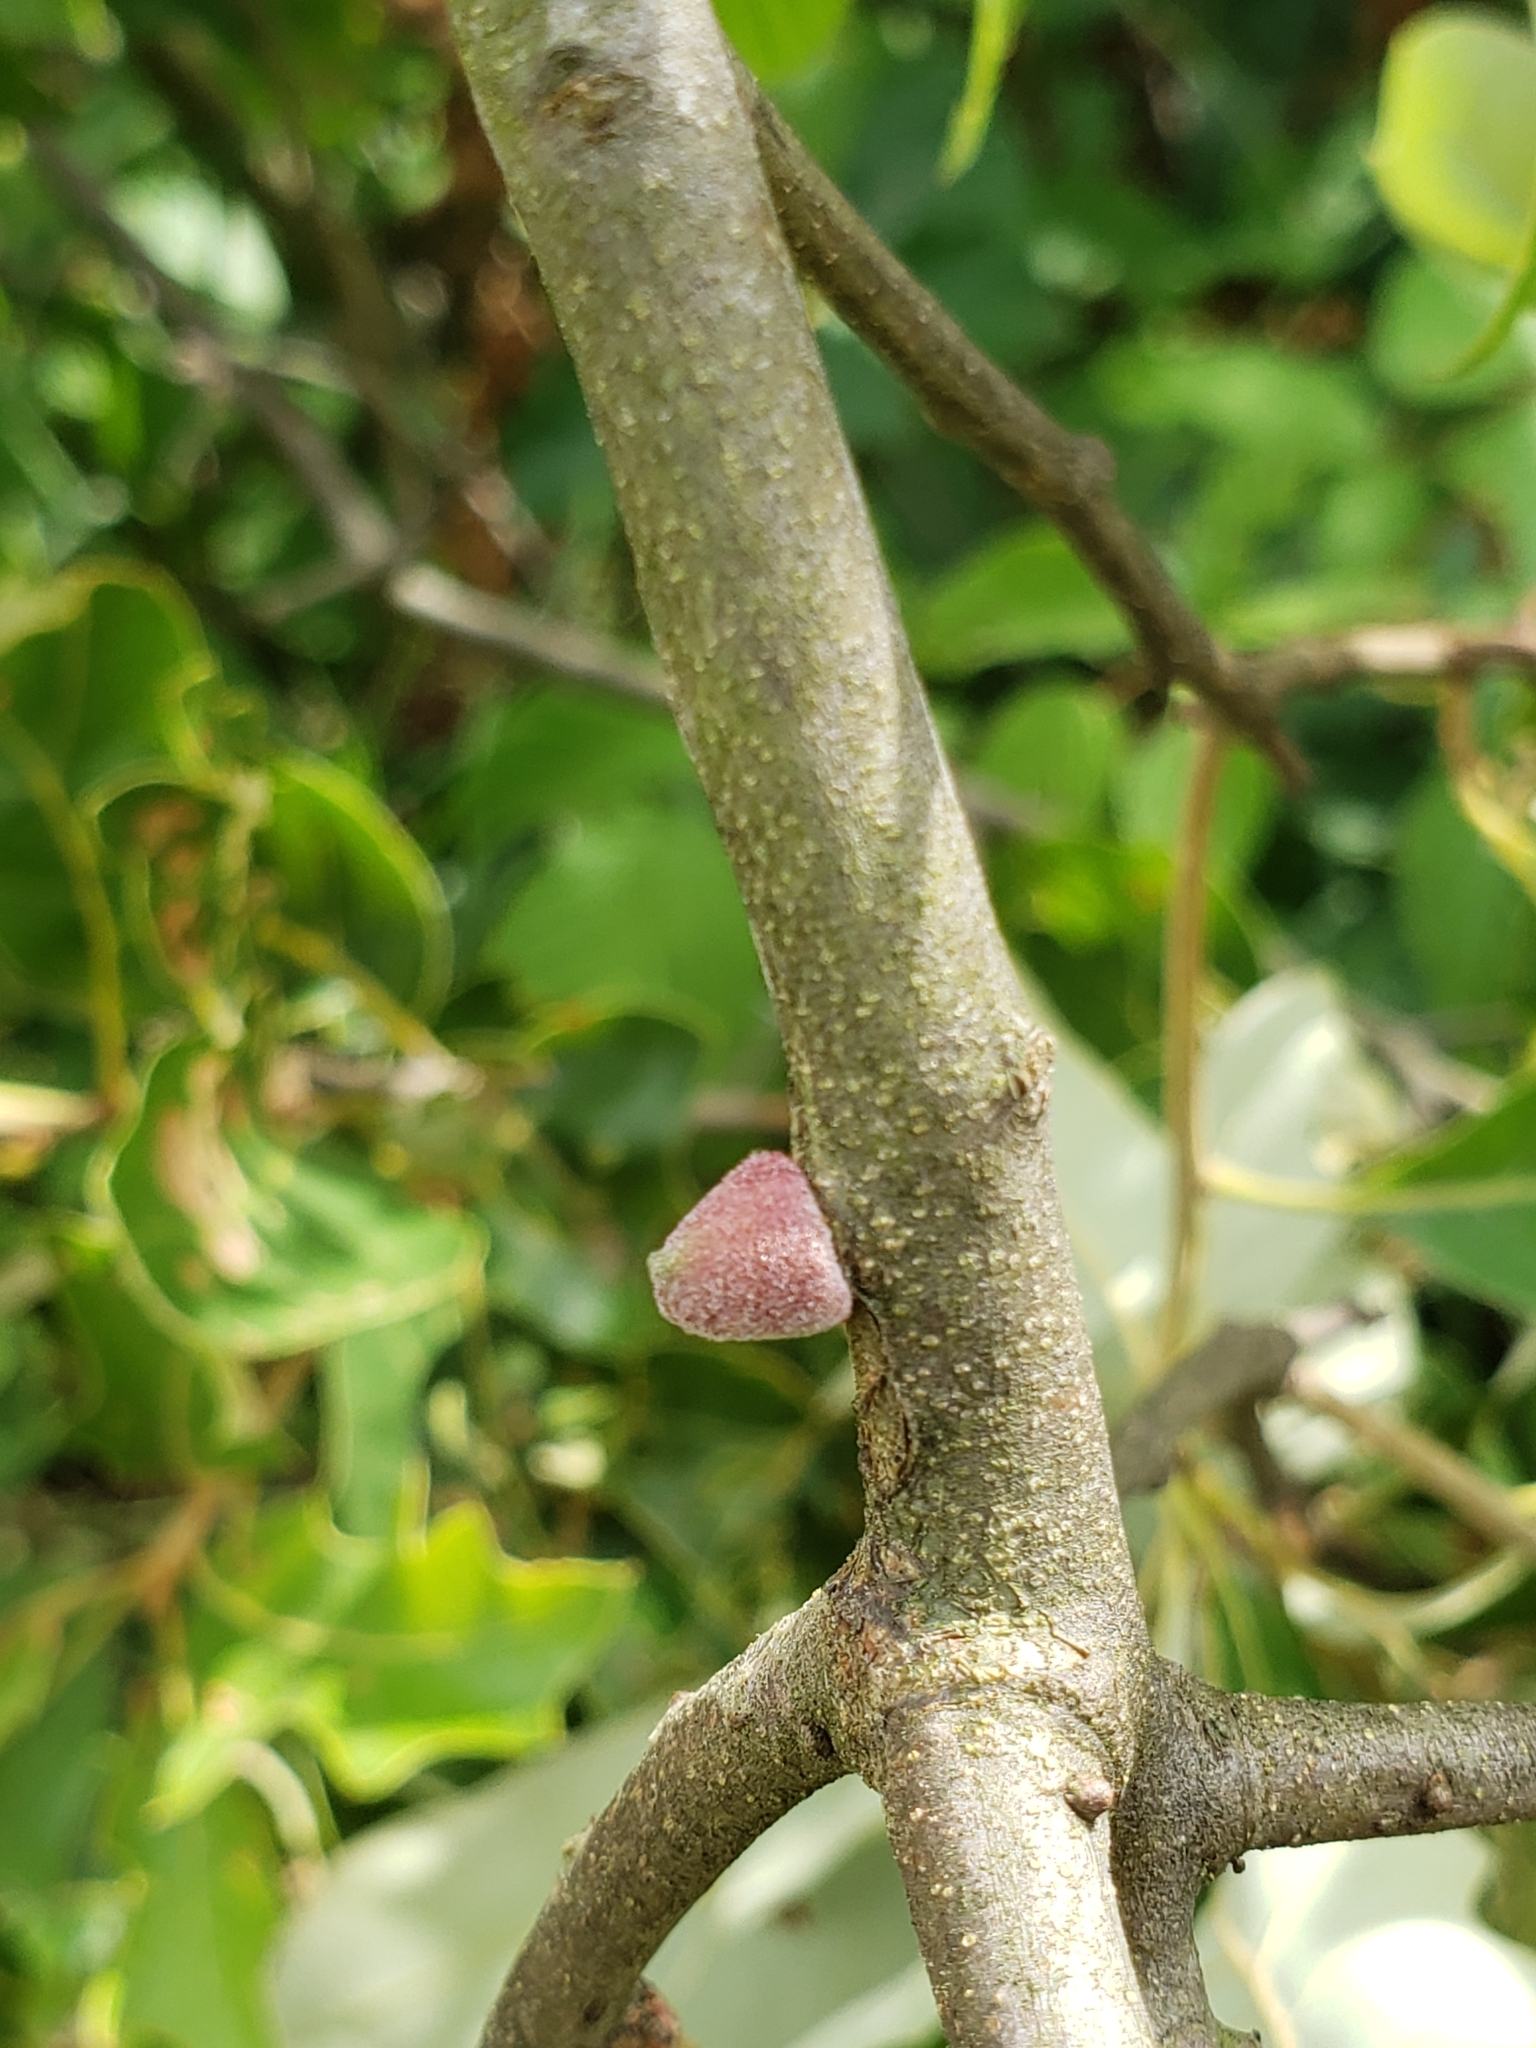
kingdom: Animalia
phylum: Arthropoda
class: Insecta
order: Hymenoptera
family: Cynipidae
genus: Callirhytis
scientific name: Callirhytis
